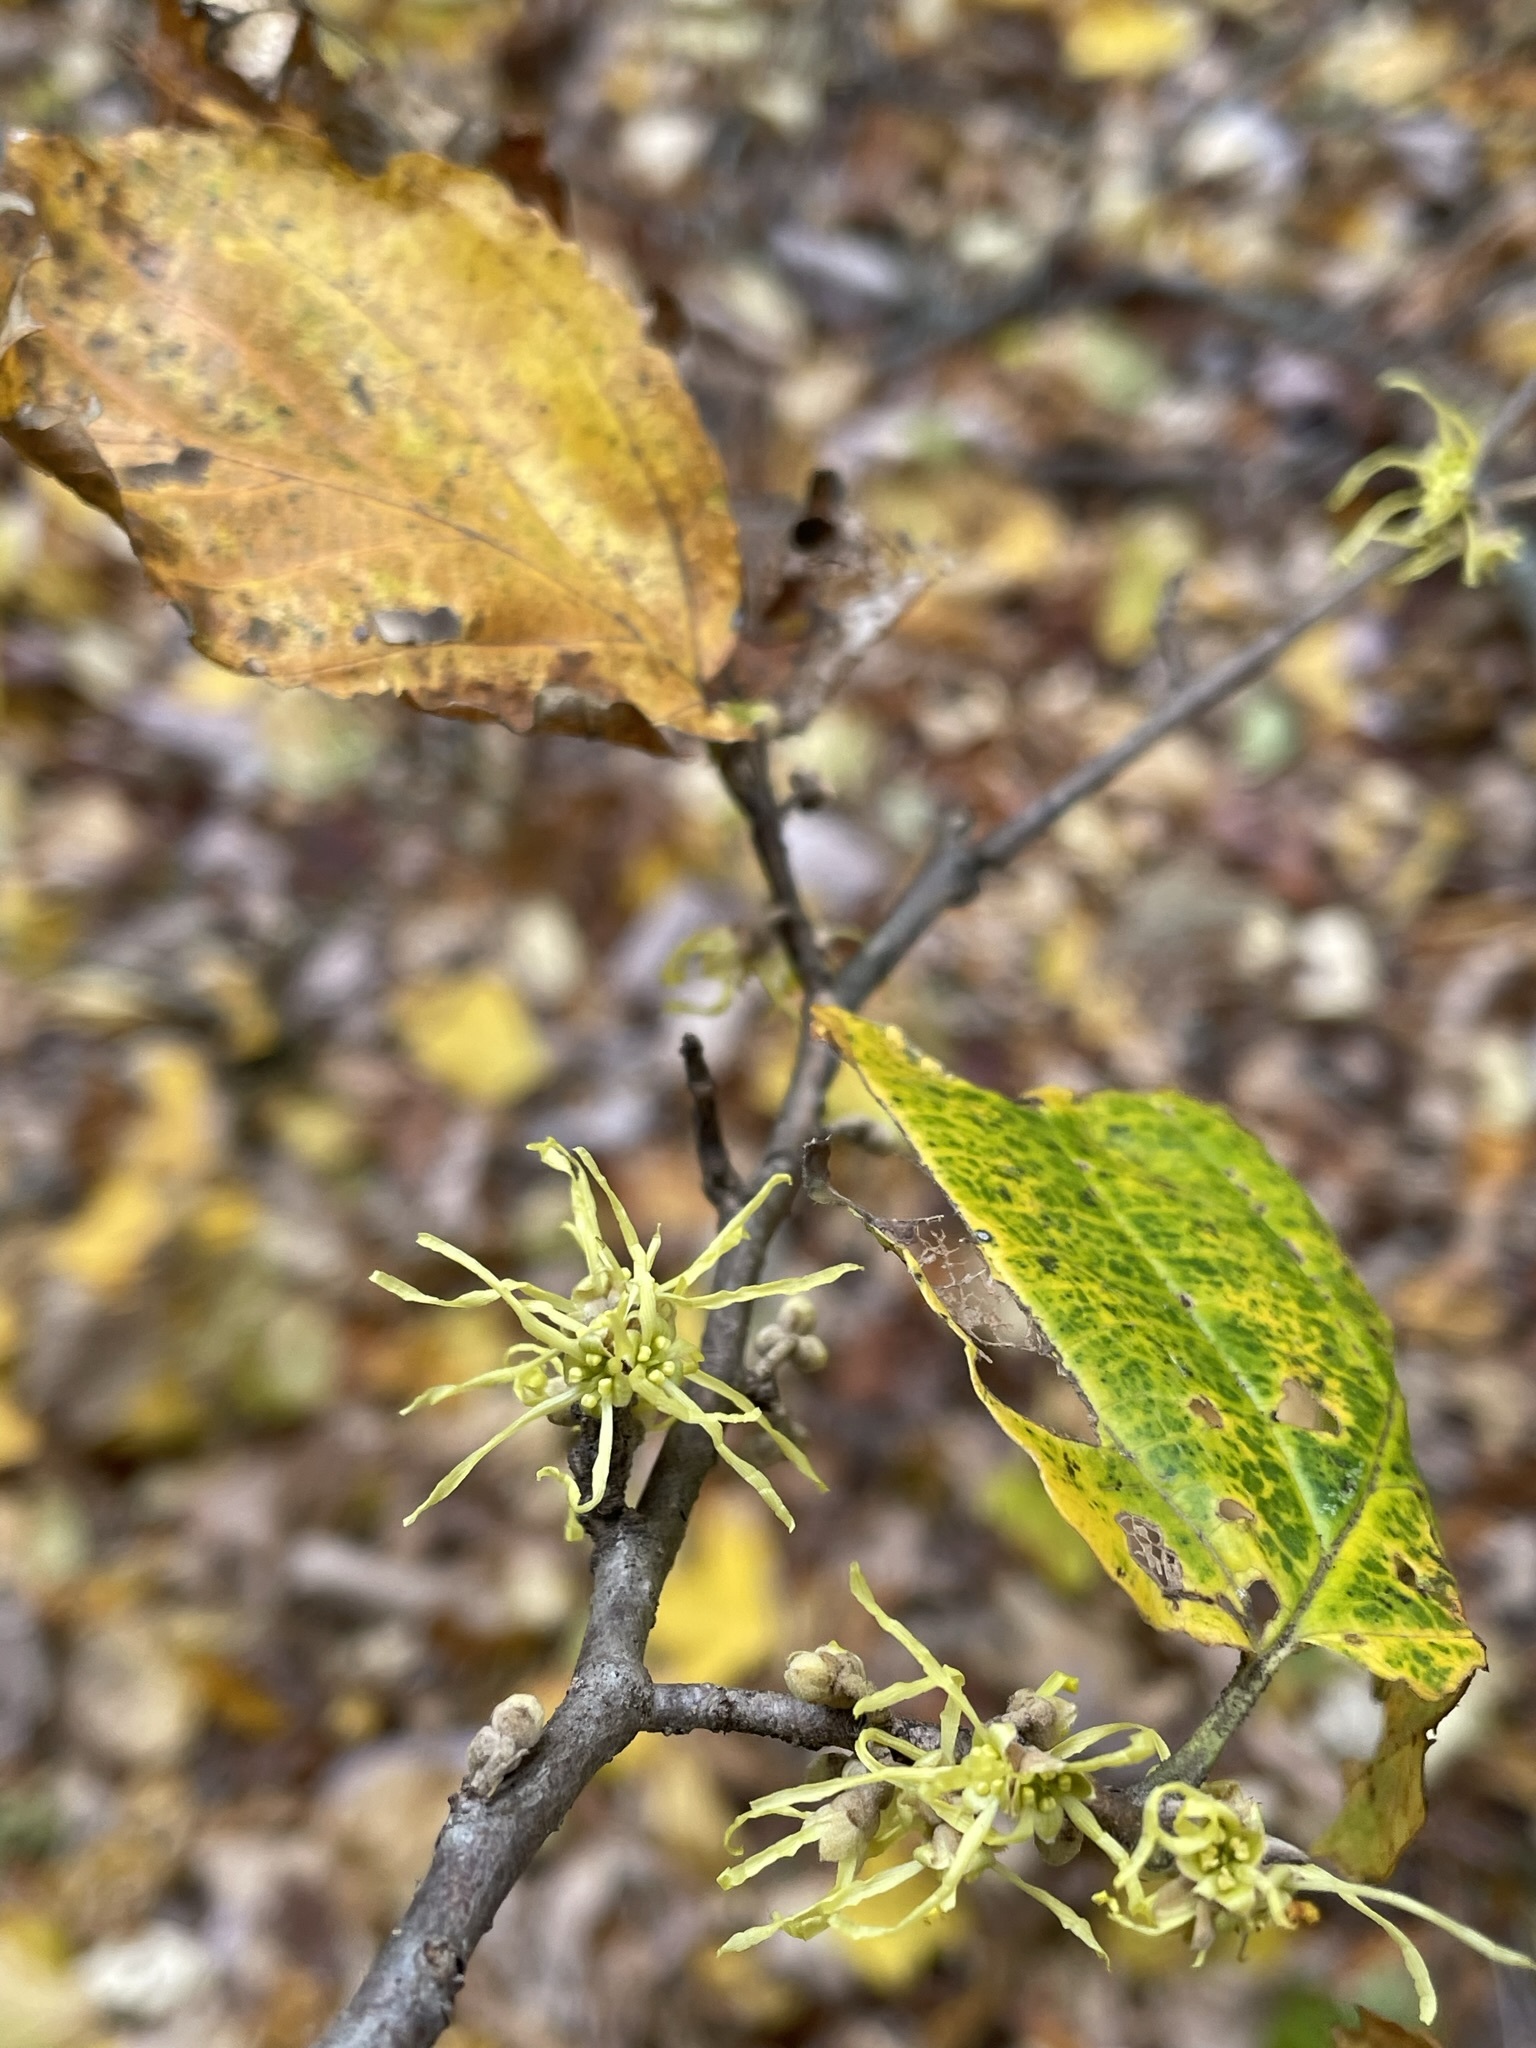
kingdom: Plantae
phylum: Tracheophyta
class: Magnoliopsida
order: Saxifragales
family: Hamamelidaceae
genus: Hamamelis
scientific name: Hamamelis virginiana
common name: Witch-hazel
